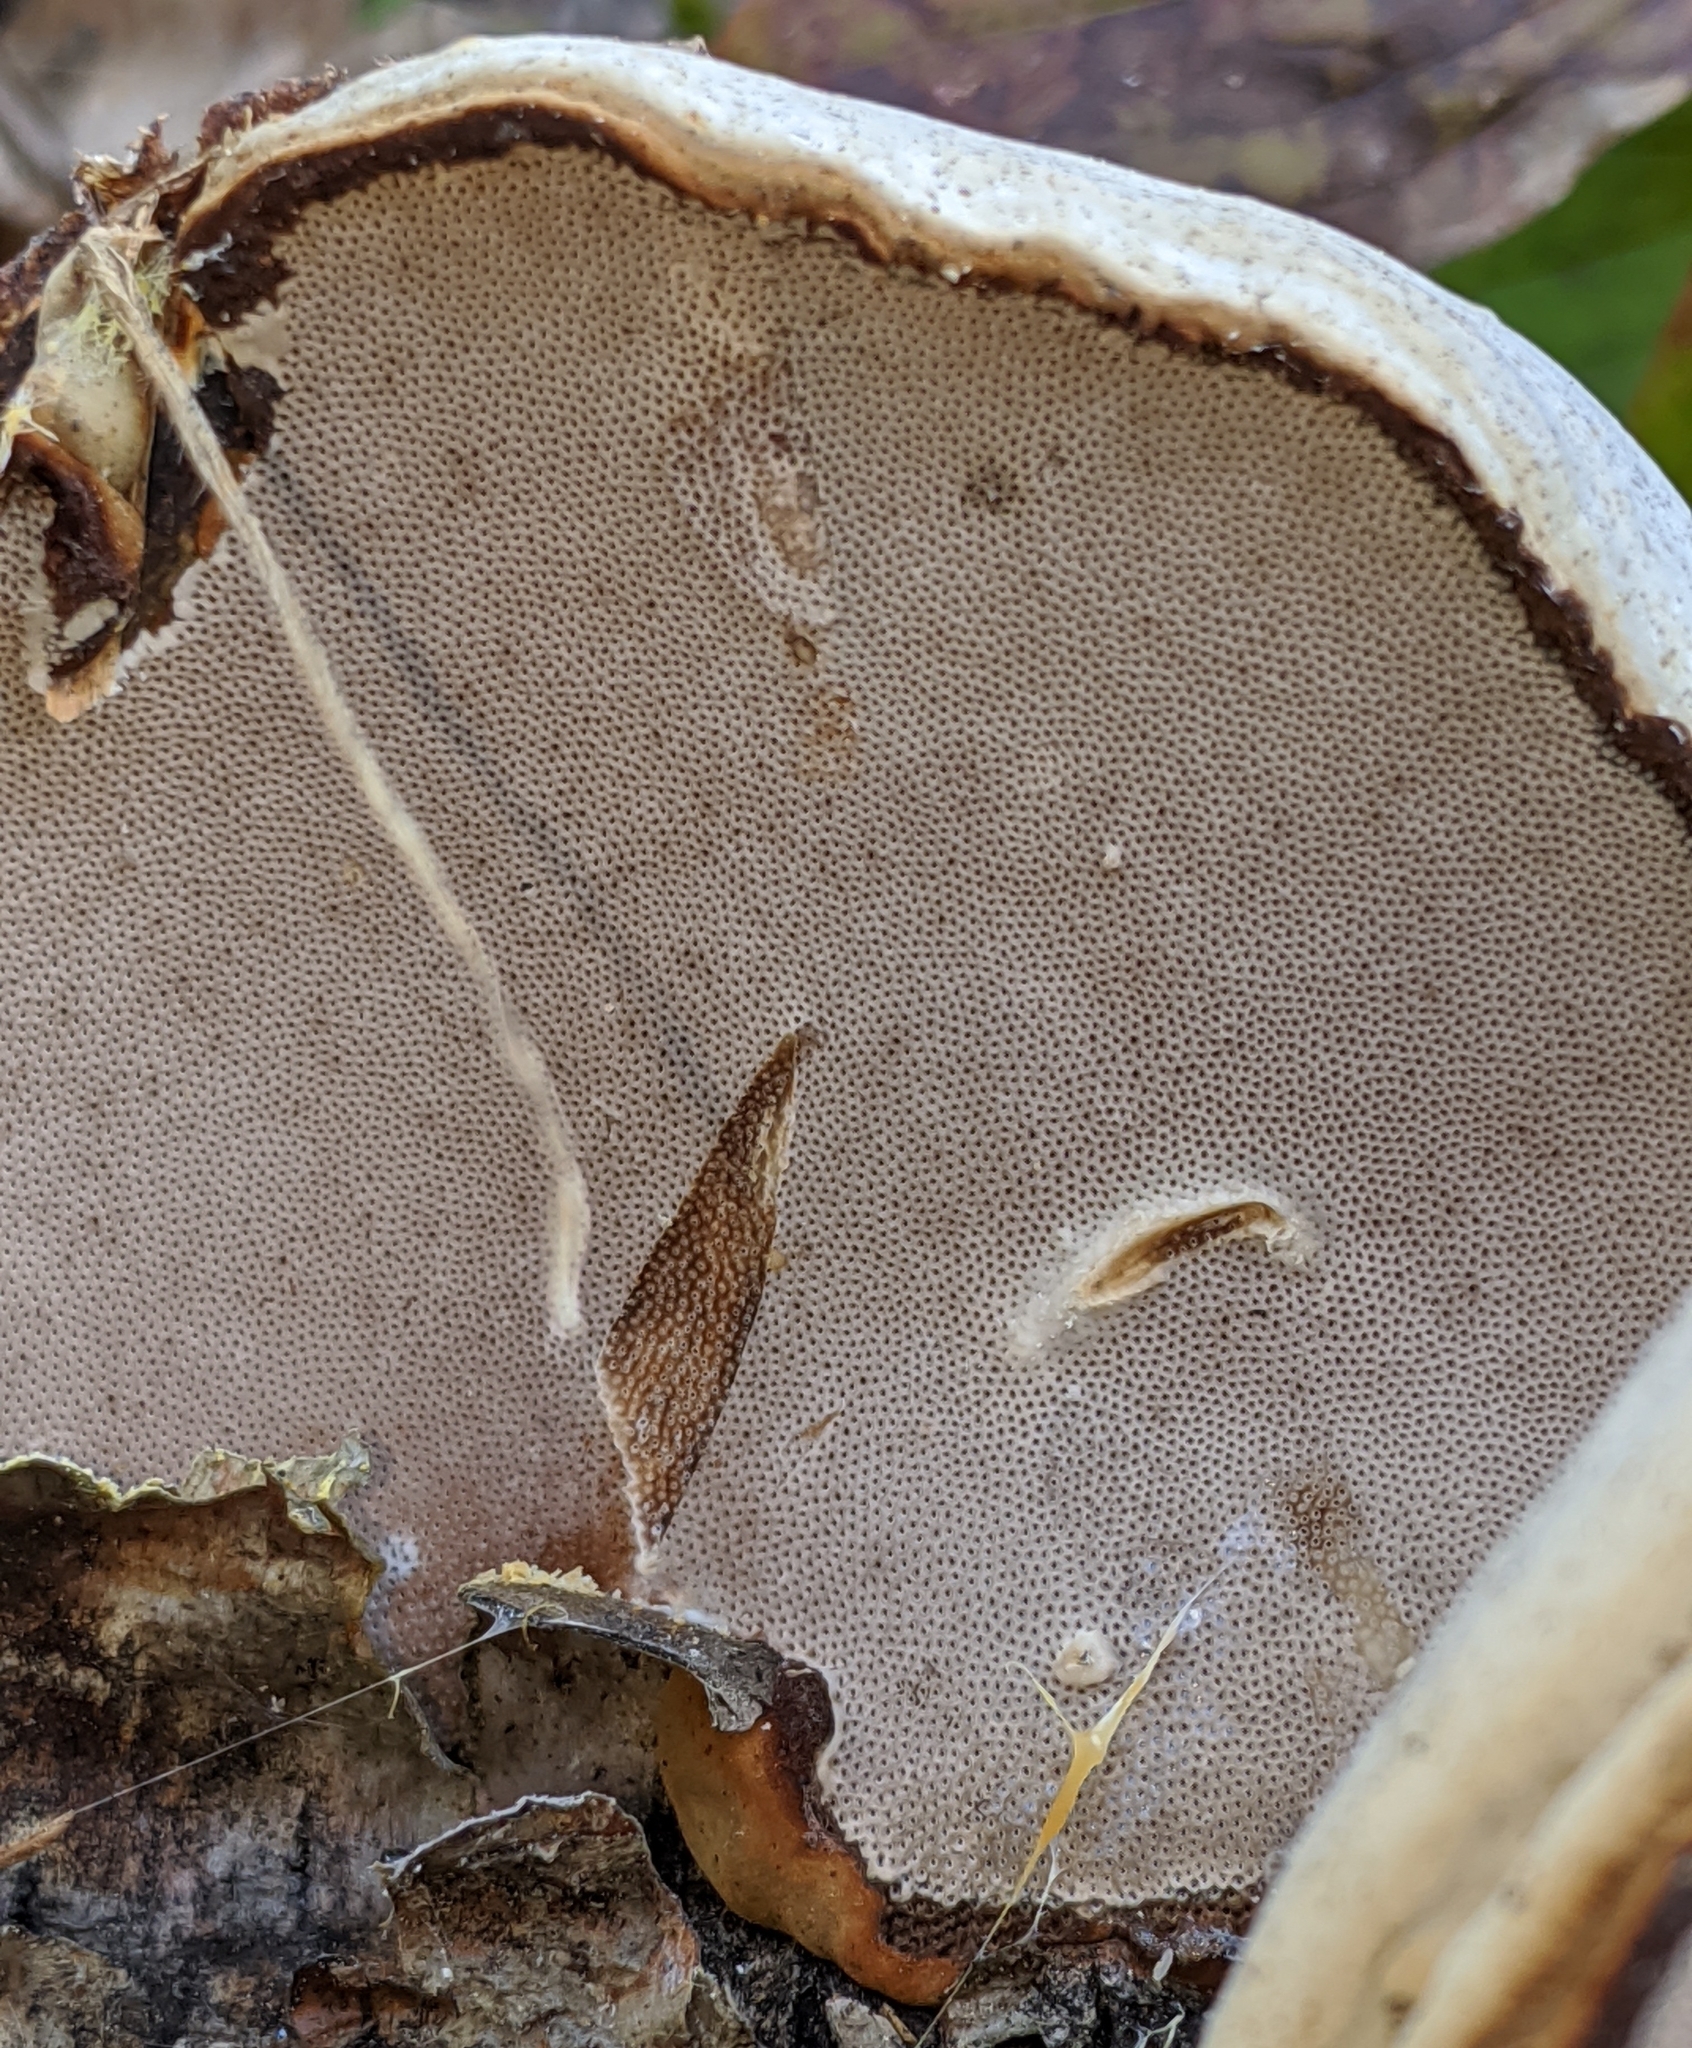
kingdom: Fungi
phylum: Basidiomycota
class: Agaricomycetes
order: Polyporales
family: Polyporaceae
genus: Fomes
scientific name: Fomes fomentarius
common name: Hoof fungus
